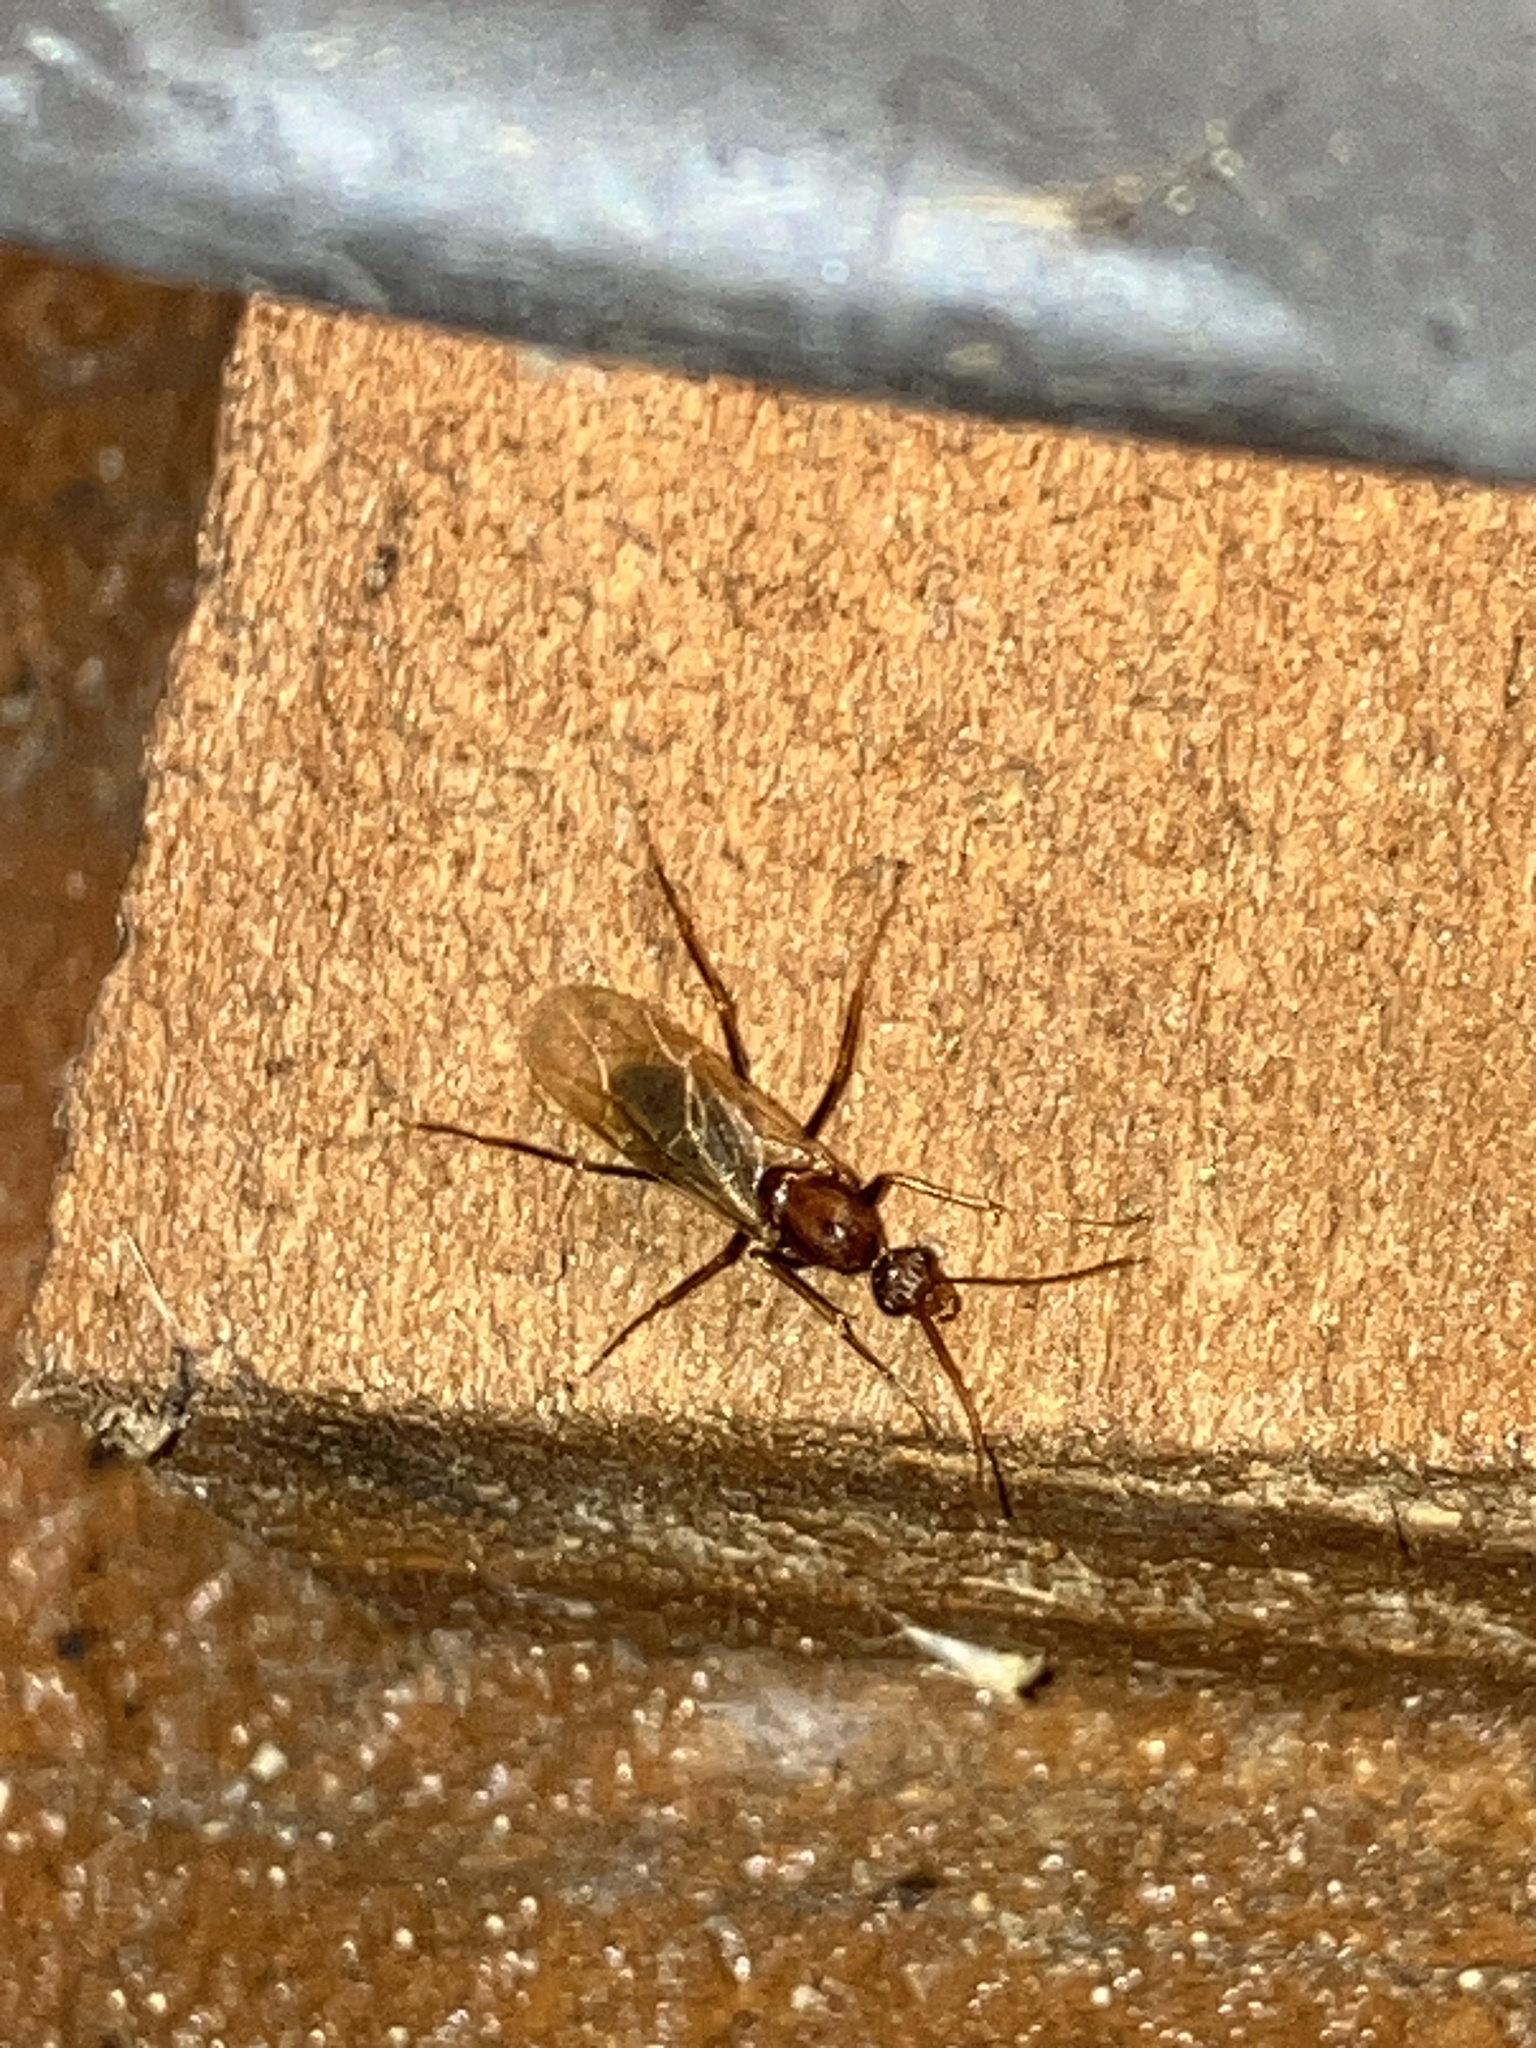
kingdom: Animalia
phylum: Arthropoda
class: Insecta
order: Hymenoptera
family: Formicidae
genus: Camponotus
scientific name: Camponotus floridanus
